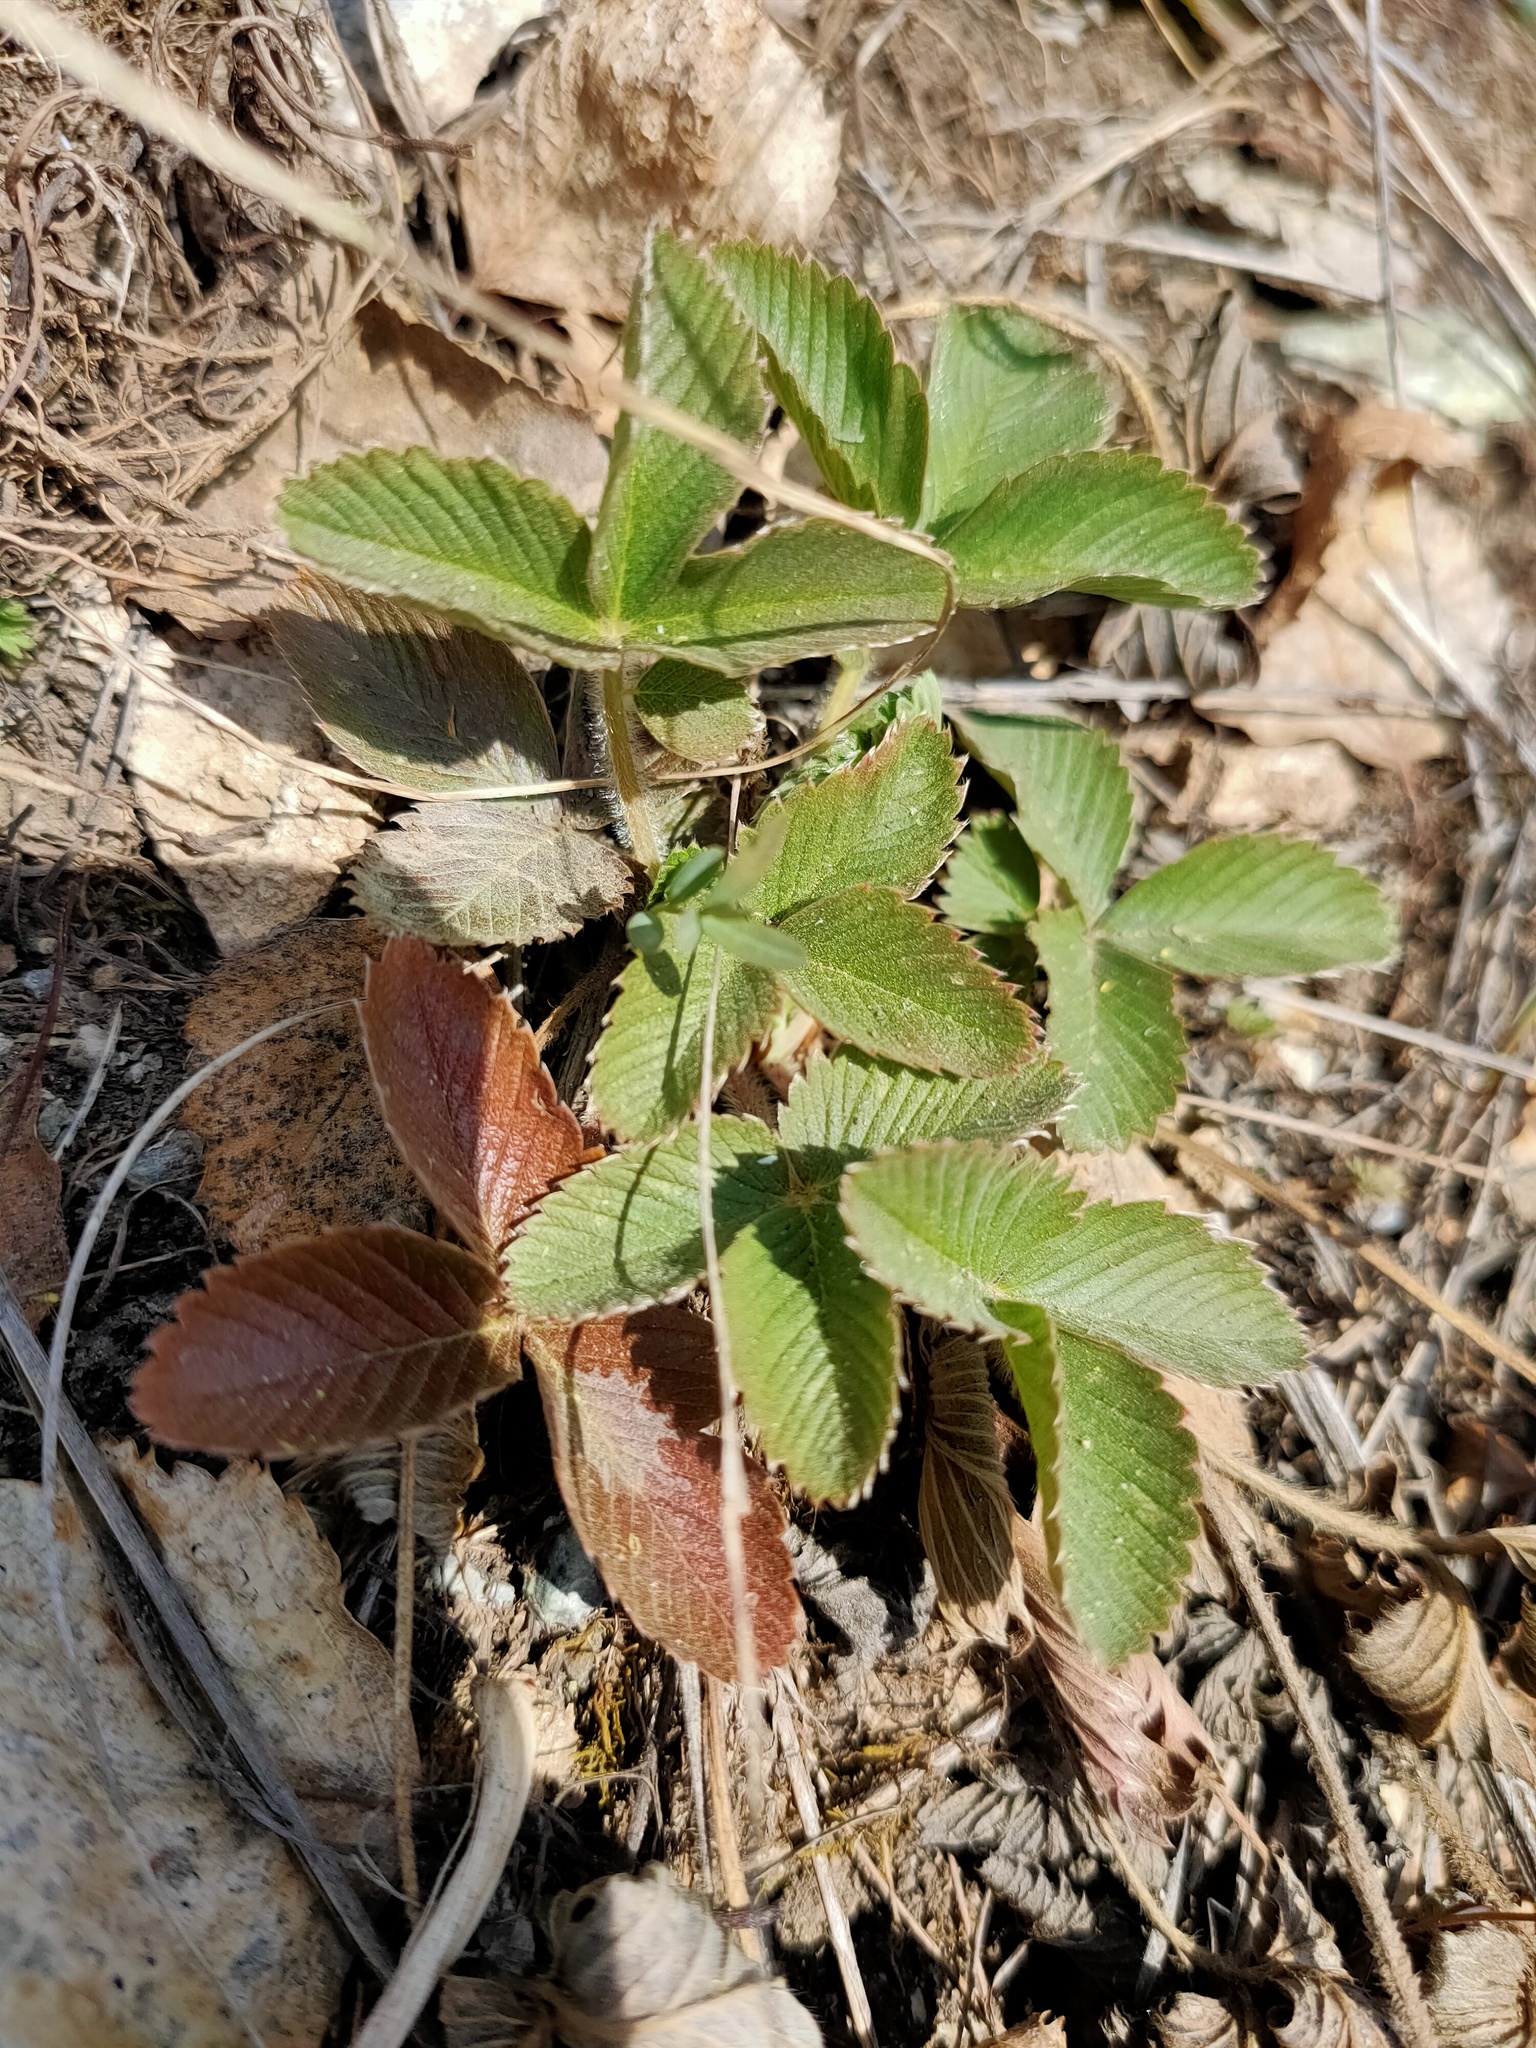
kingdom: Plantae
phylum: Tracheophyta
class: Magnoliopsida
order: Rosales
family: Rosaceae
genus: Fragaria
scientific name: Fragaria viridis
